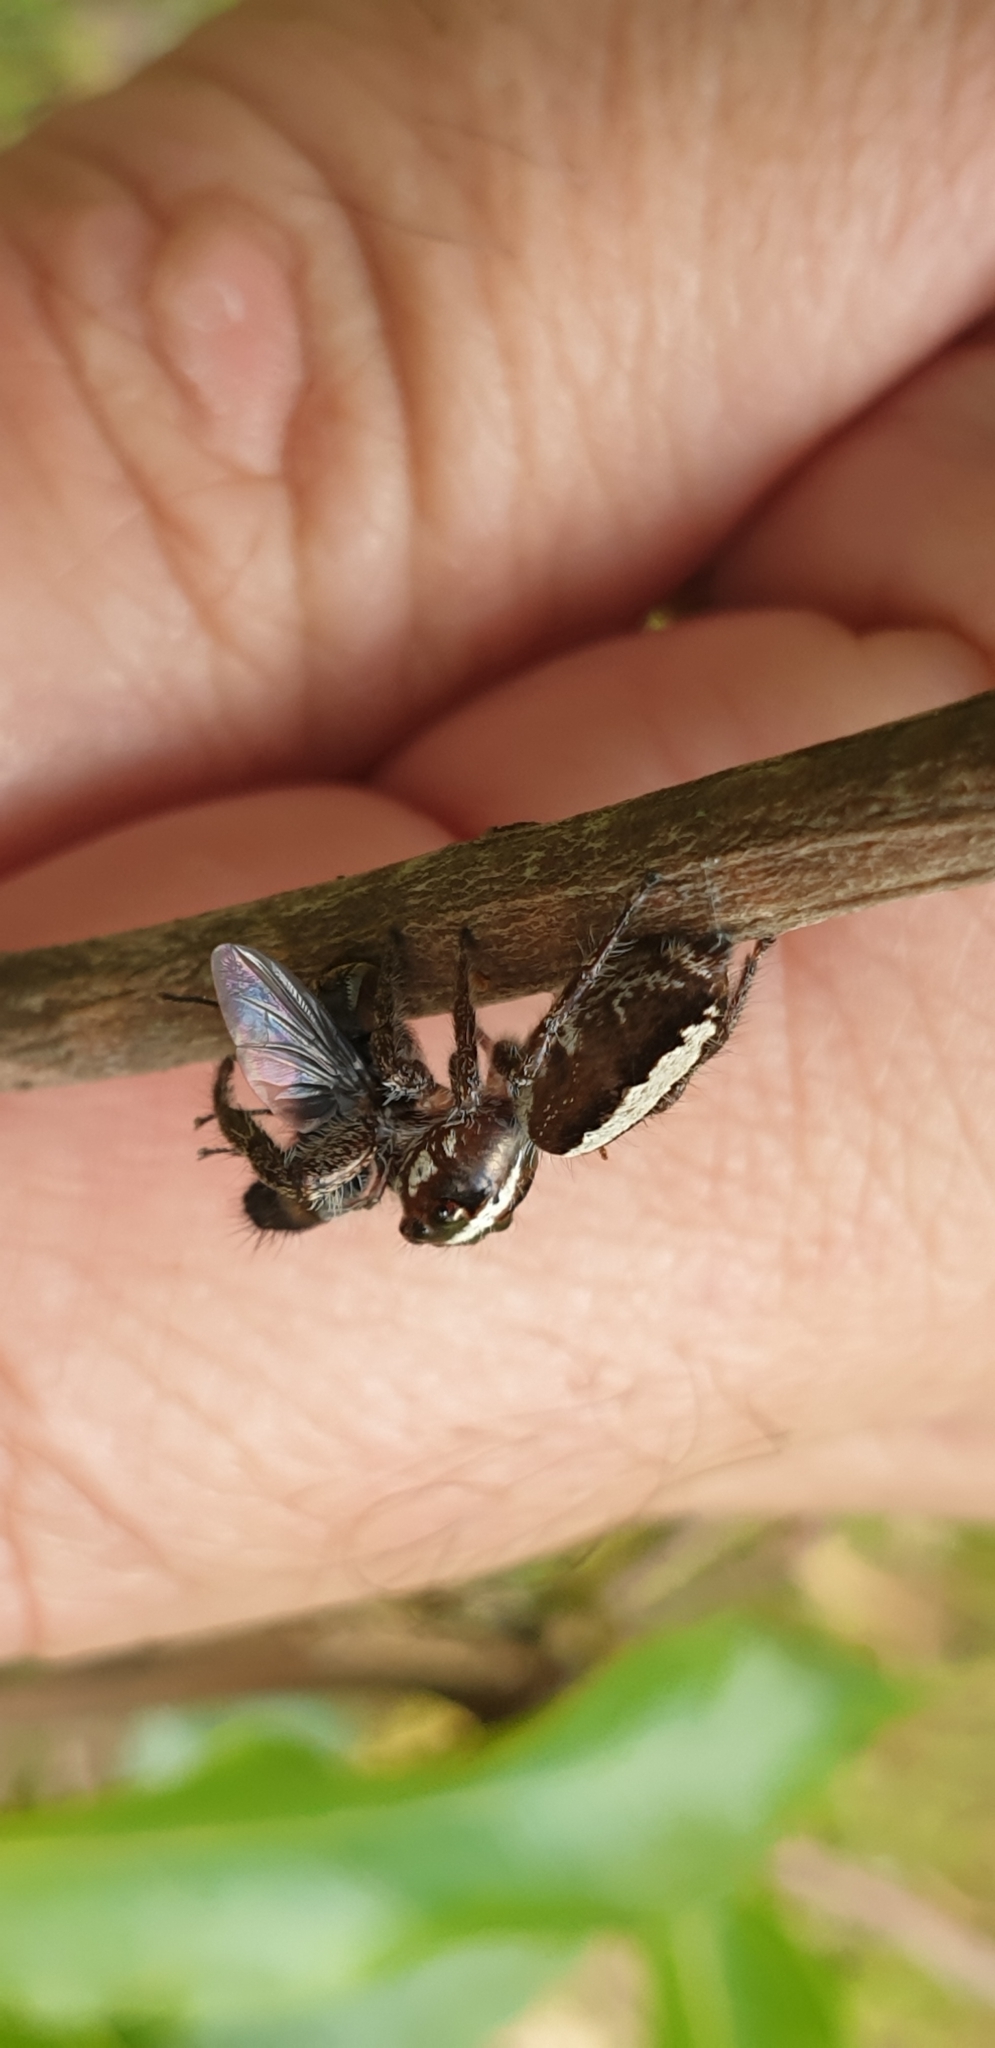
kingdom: Animalia
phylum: Arthropoda
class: Arachnida
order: Araneae
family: Salticidae
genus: Sandalodes
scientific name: Sandalodes bipenicillatus
